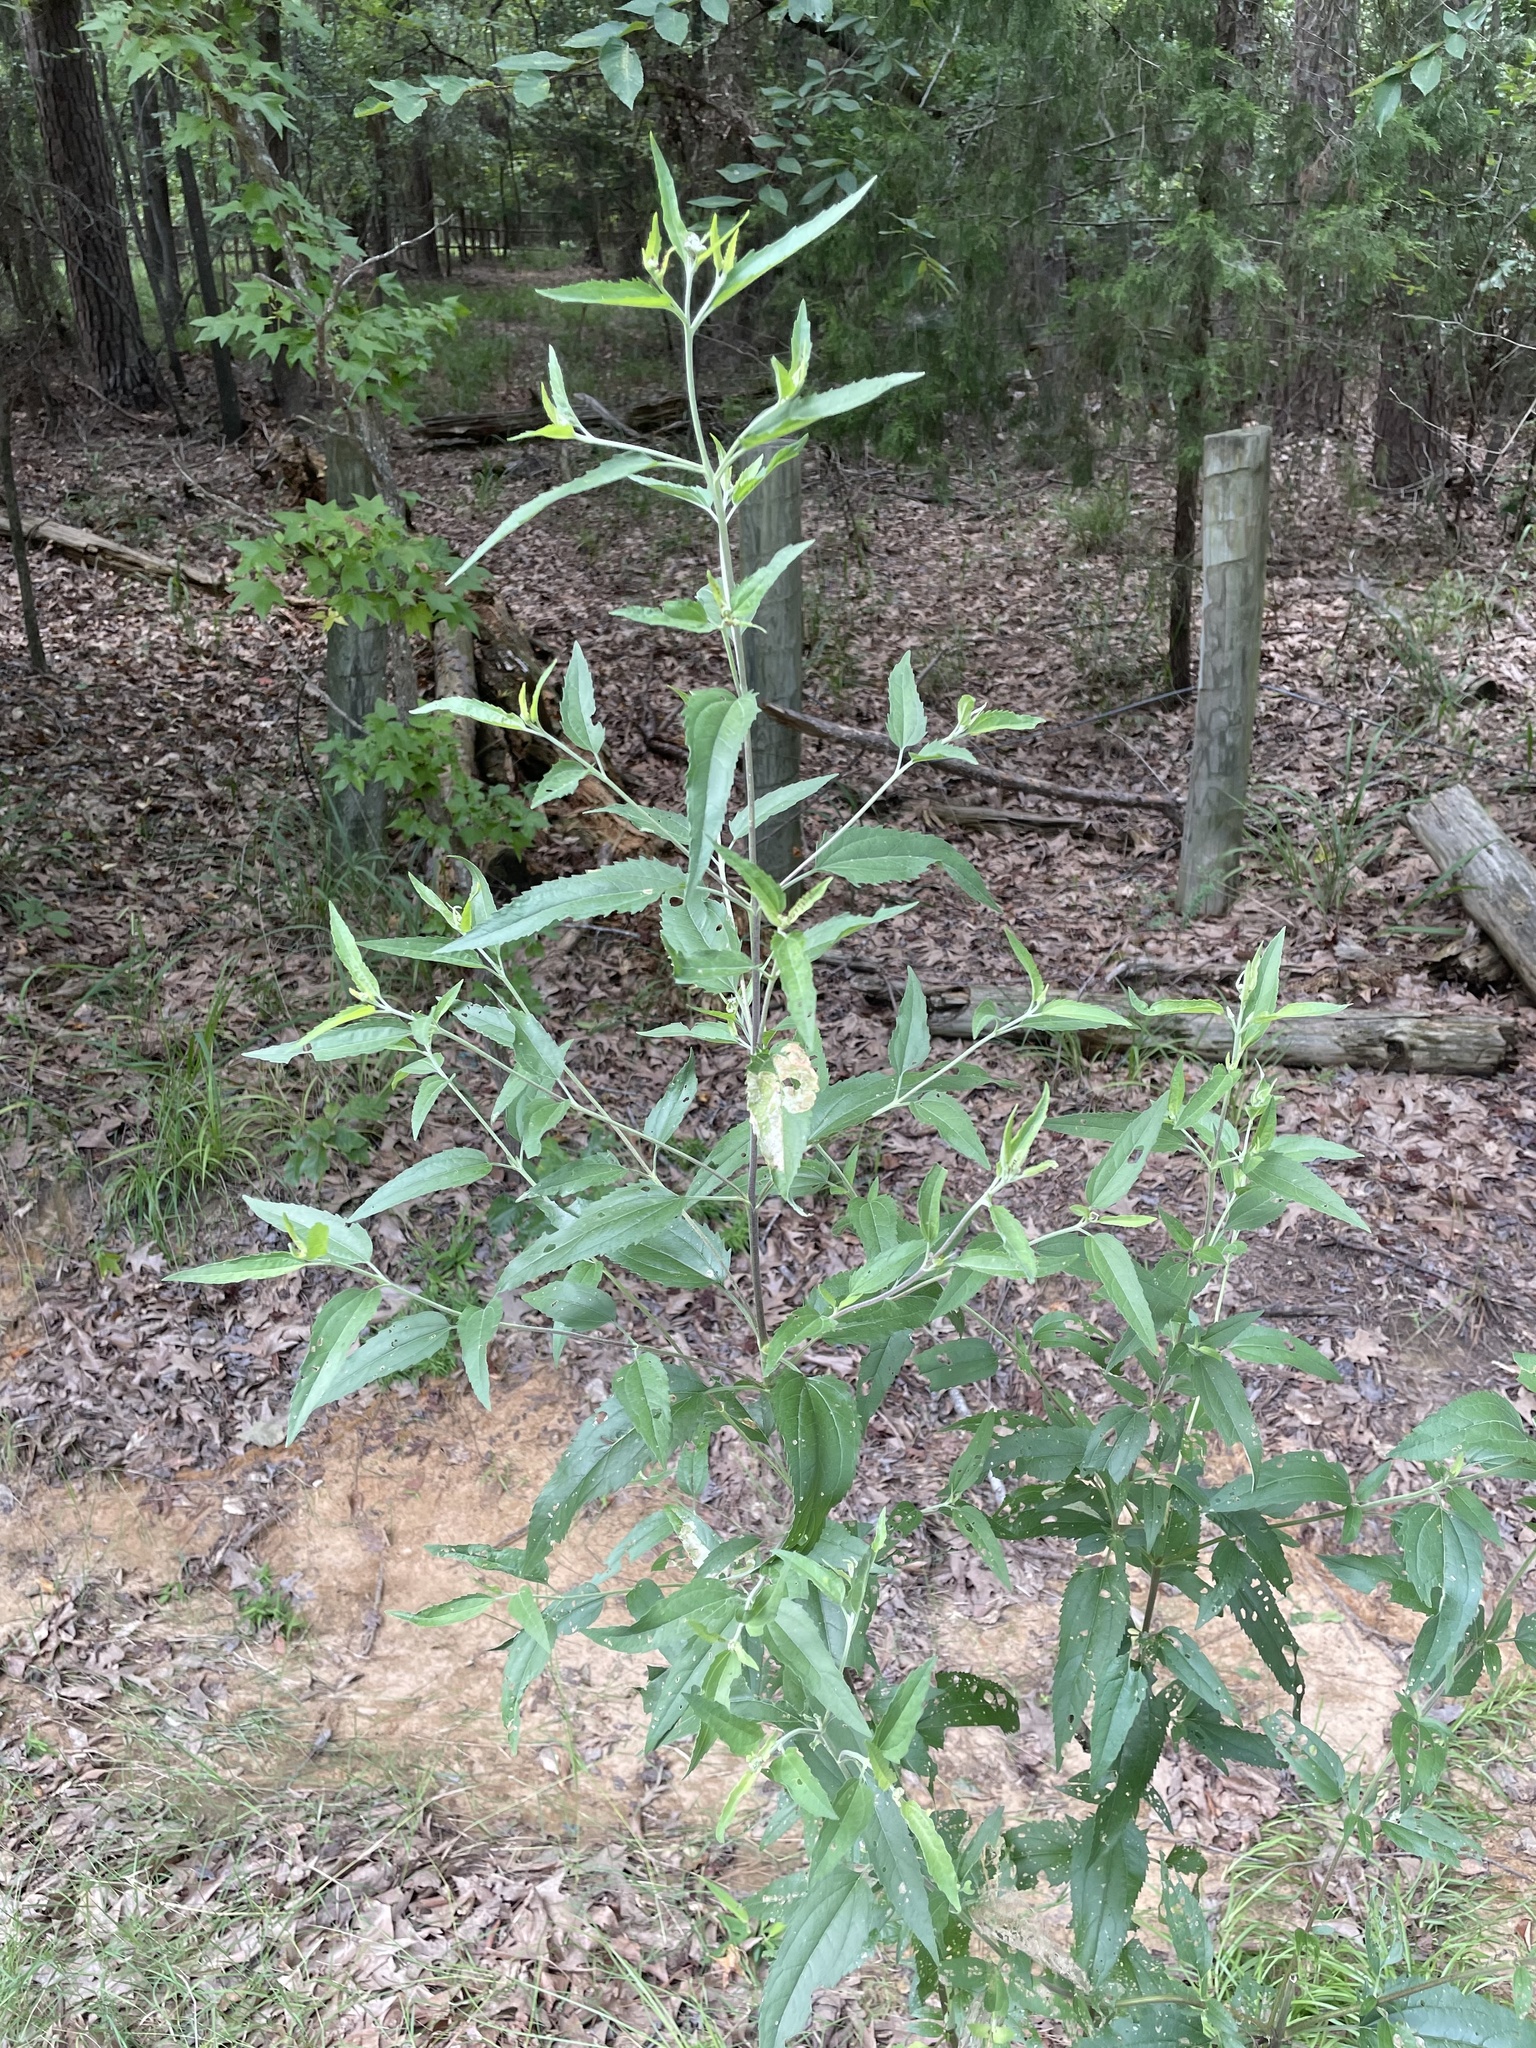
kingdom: Plantae
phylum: Tracheophyta
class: Magnoliopsida
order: Asterales
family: Asteraceae
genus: Eupatorium
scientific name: Eupatorium serotinum
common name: Late boneset
